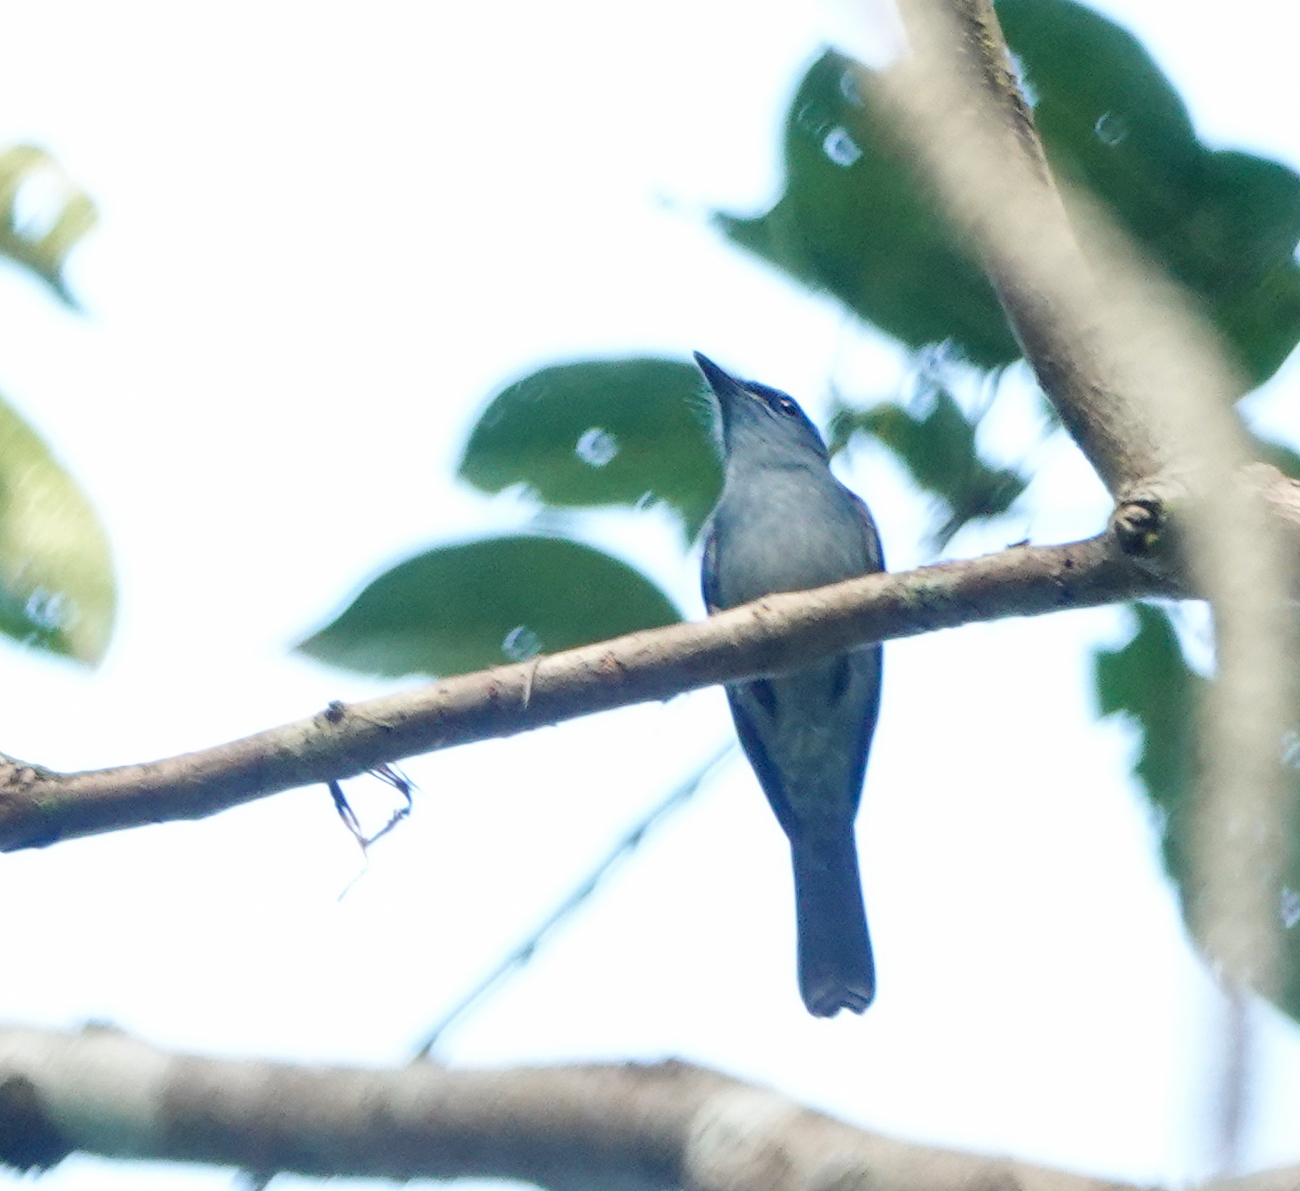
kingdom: Animalia
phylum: Chordata
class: Aves
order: Passeriformes
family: Muscicapidae
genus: Cyornis
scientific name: Cyornis unicolor
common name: Pale blue flycatcher
